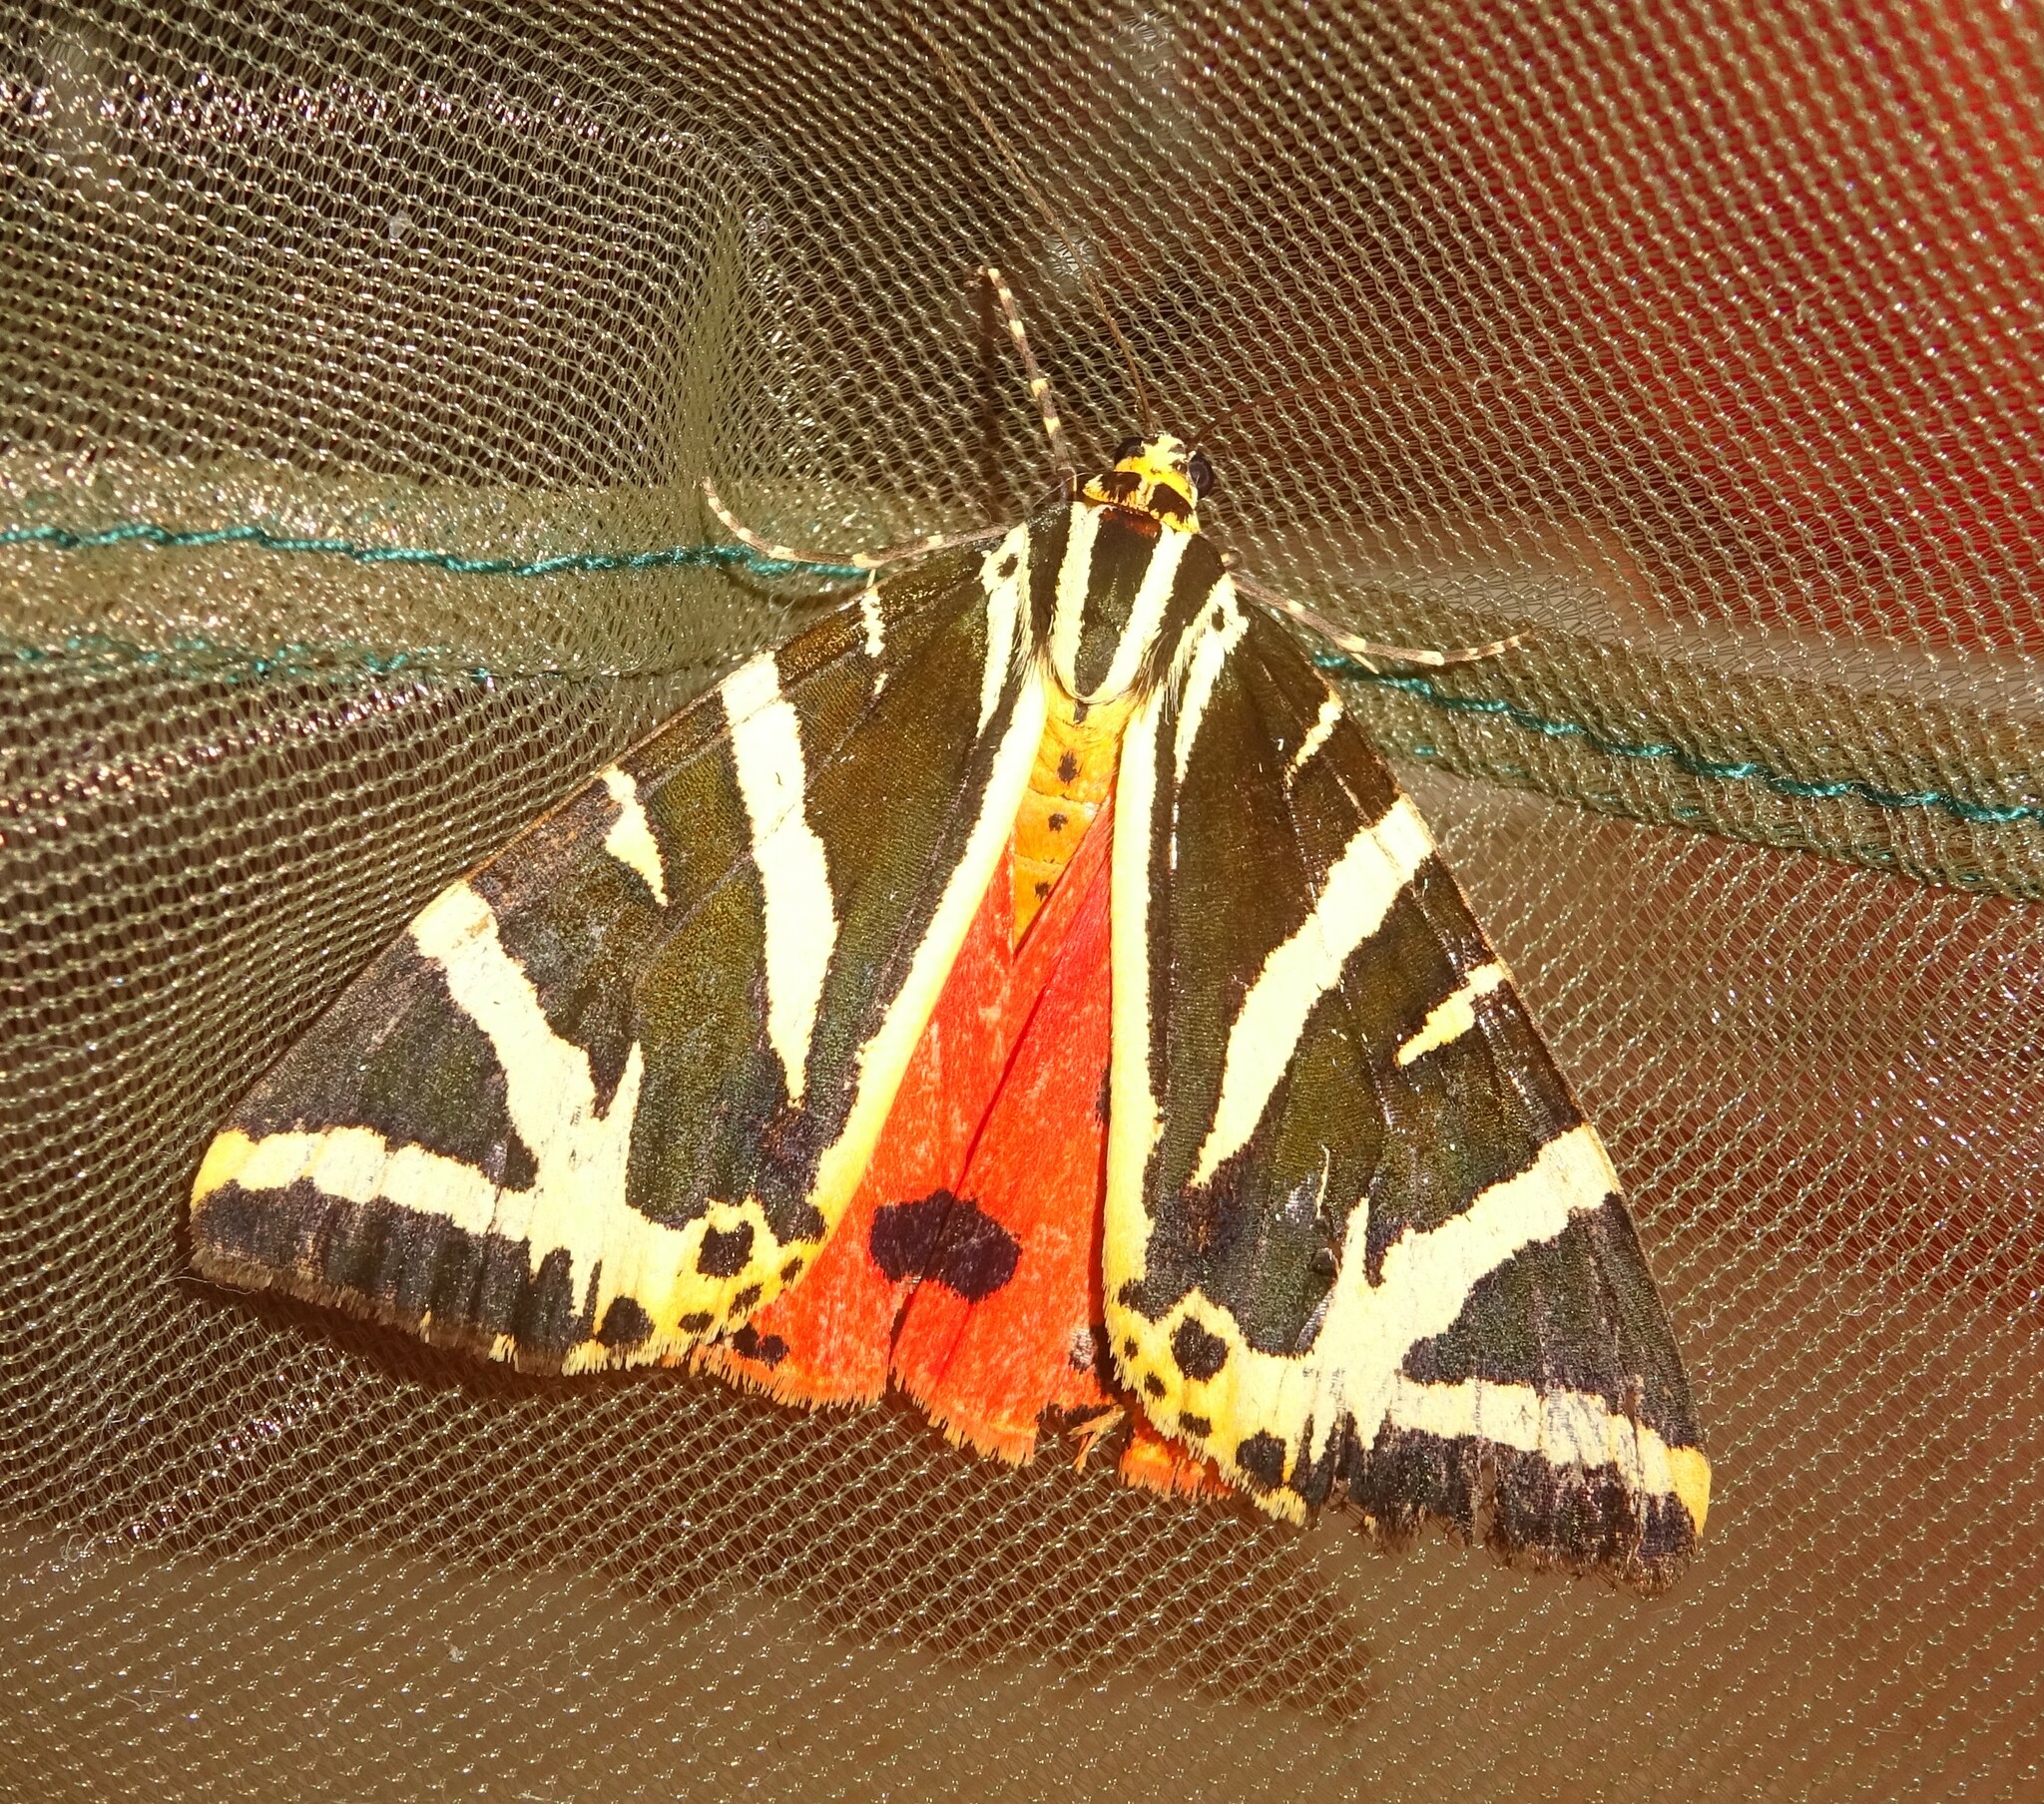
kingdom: Animalia
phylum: Arthropoda
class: Insecta
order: Lepidoptera
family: Erebidae
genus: Euplagia
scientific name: Euplagia quadripunctaria
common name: Jersey tiger
